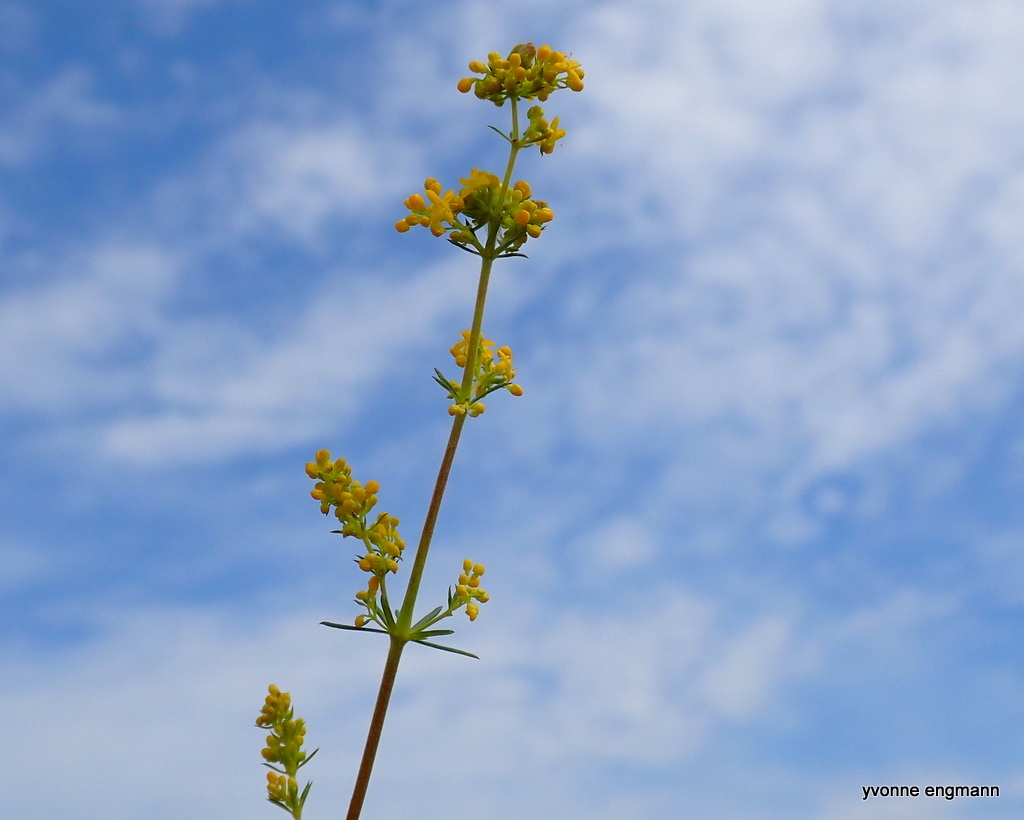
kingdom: Plantae
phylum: Tracheophyta
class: Magnoliopsida
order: Gentianales
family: Rubiaceae
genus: Galium
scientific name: Galium verum
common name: Lady's bedstraw
